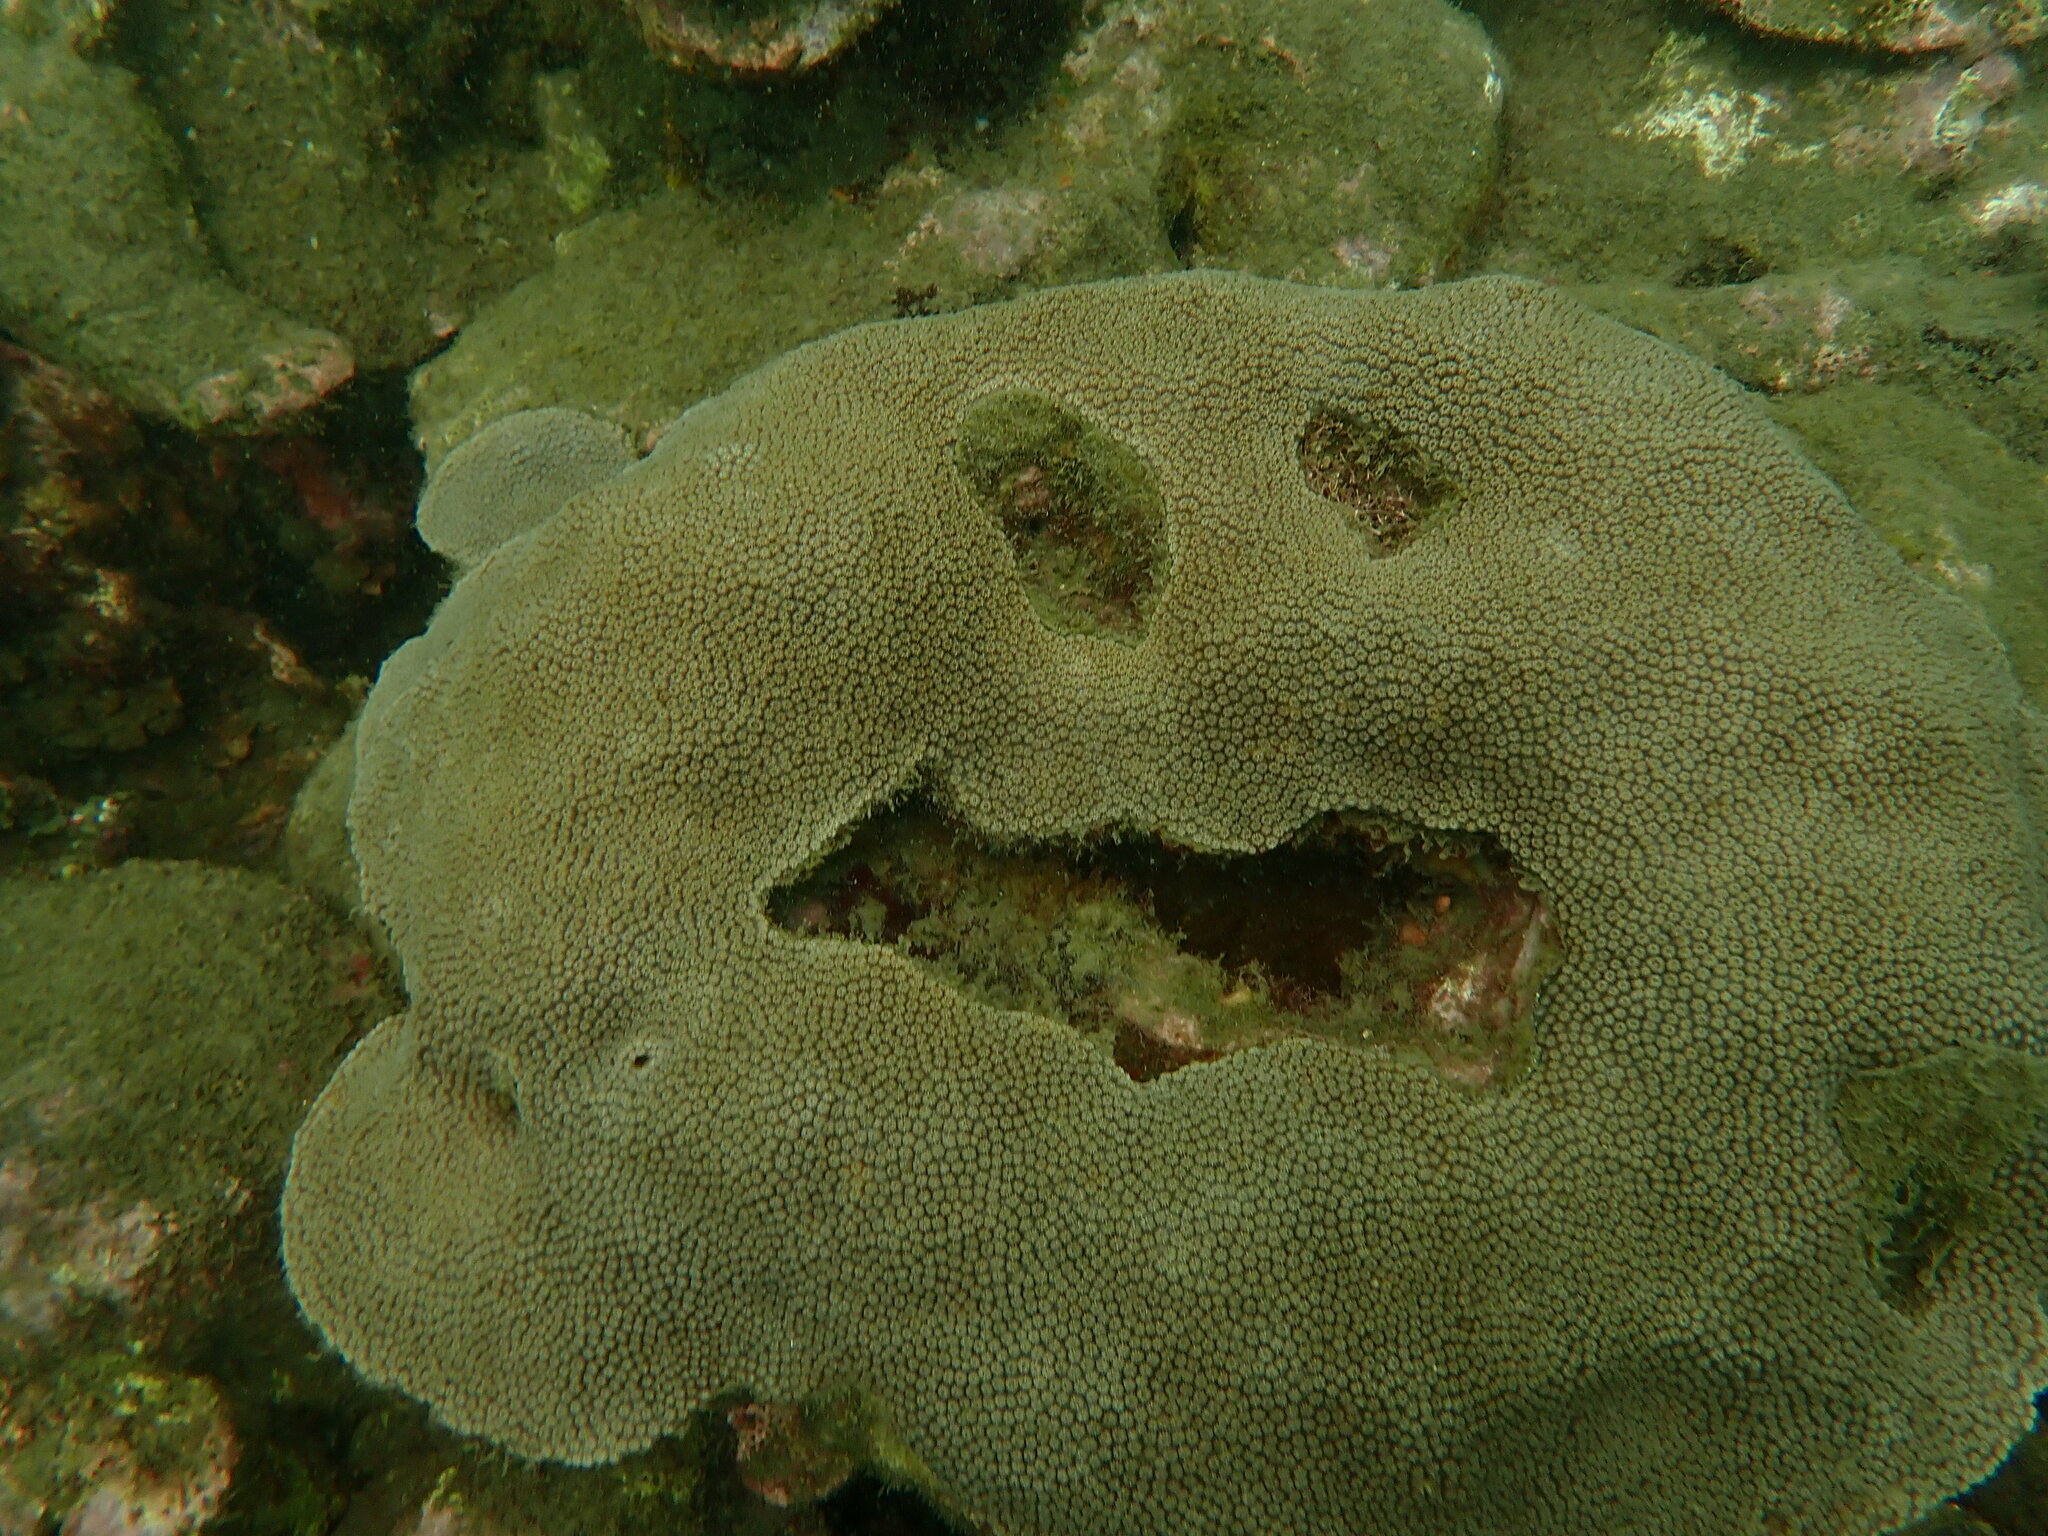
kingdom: Animalia
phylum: Cnidaria
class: Anthozoa
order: Scleractinia
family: Merulinidae
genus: Orbicella
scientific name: Orbicella faveolata
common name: Mountainous star coral
